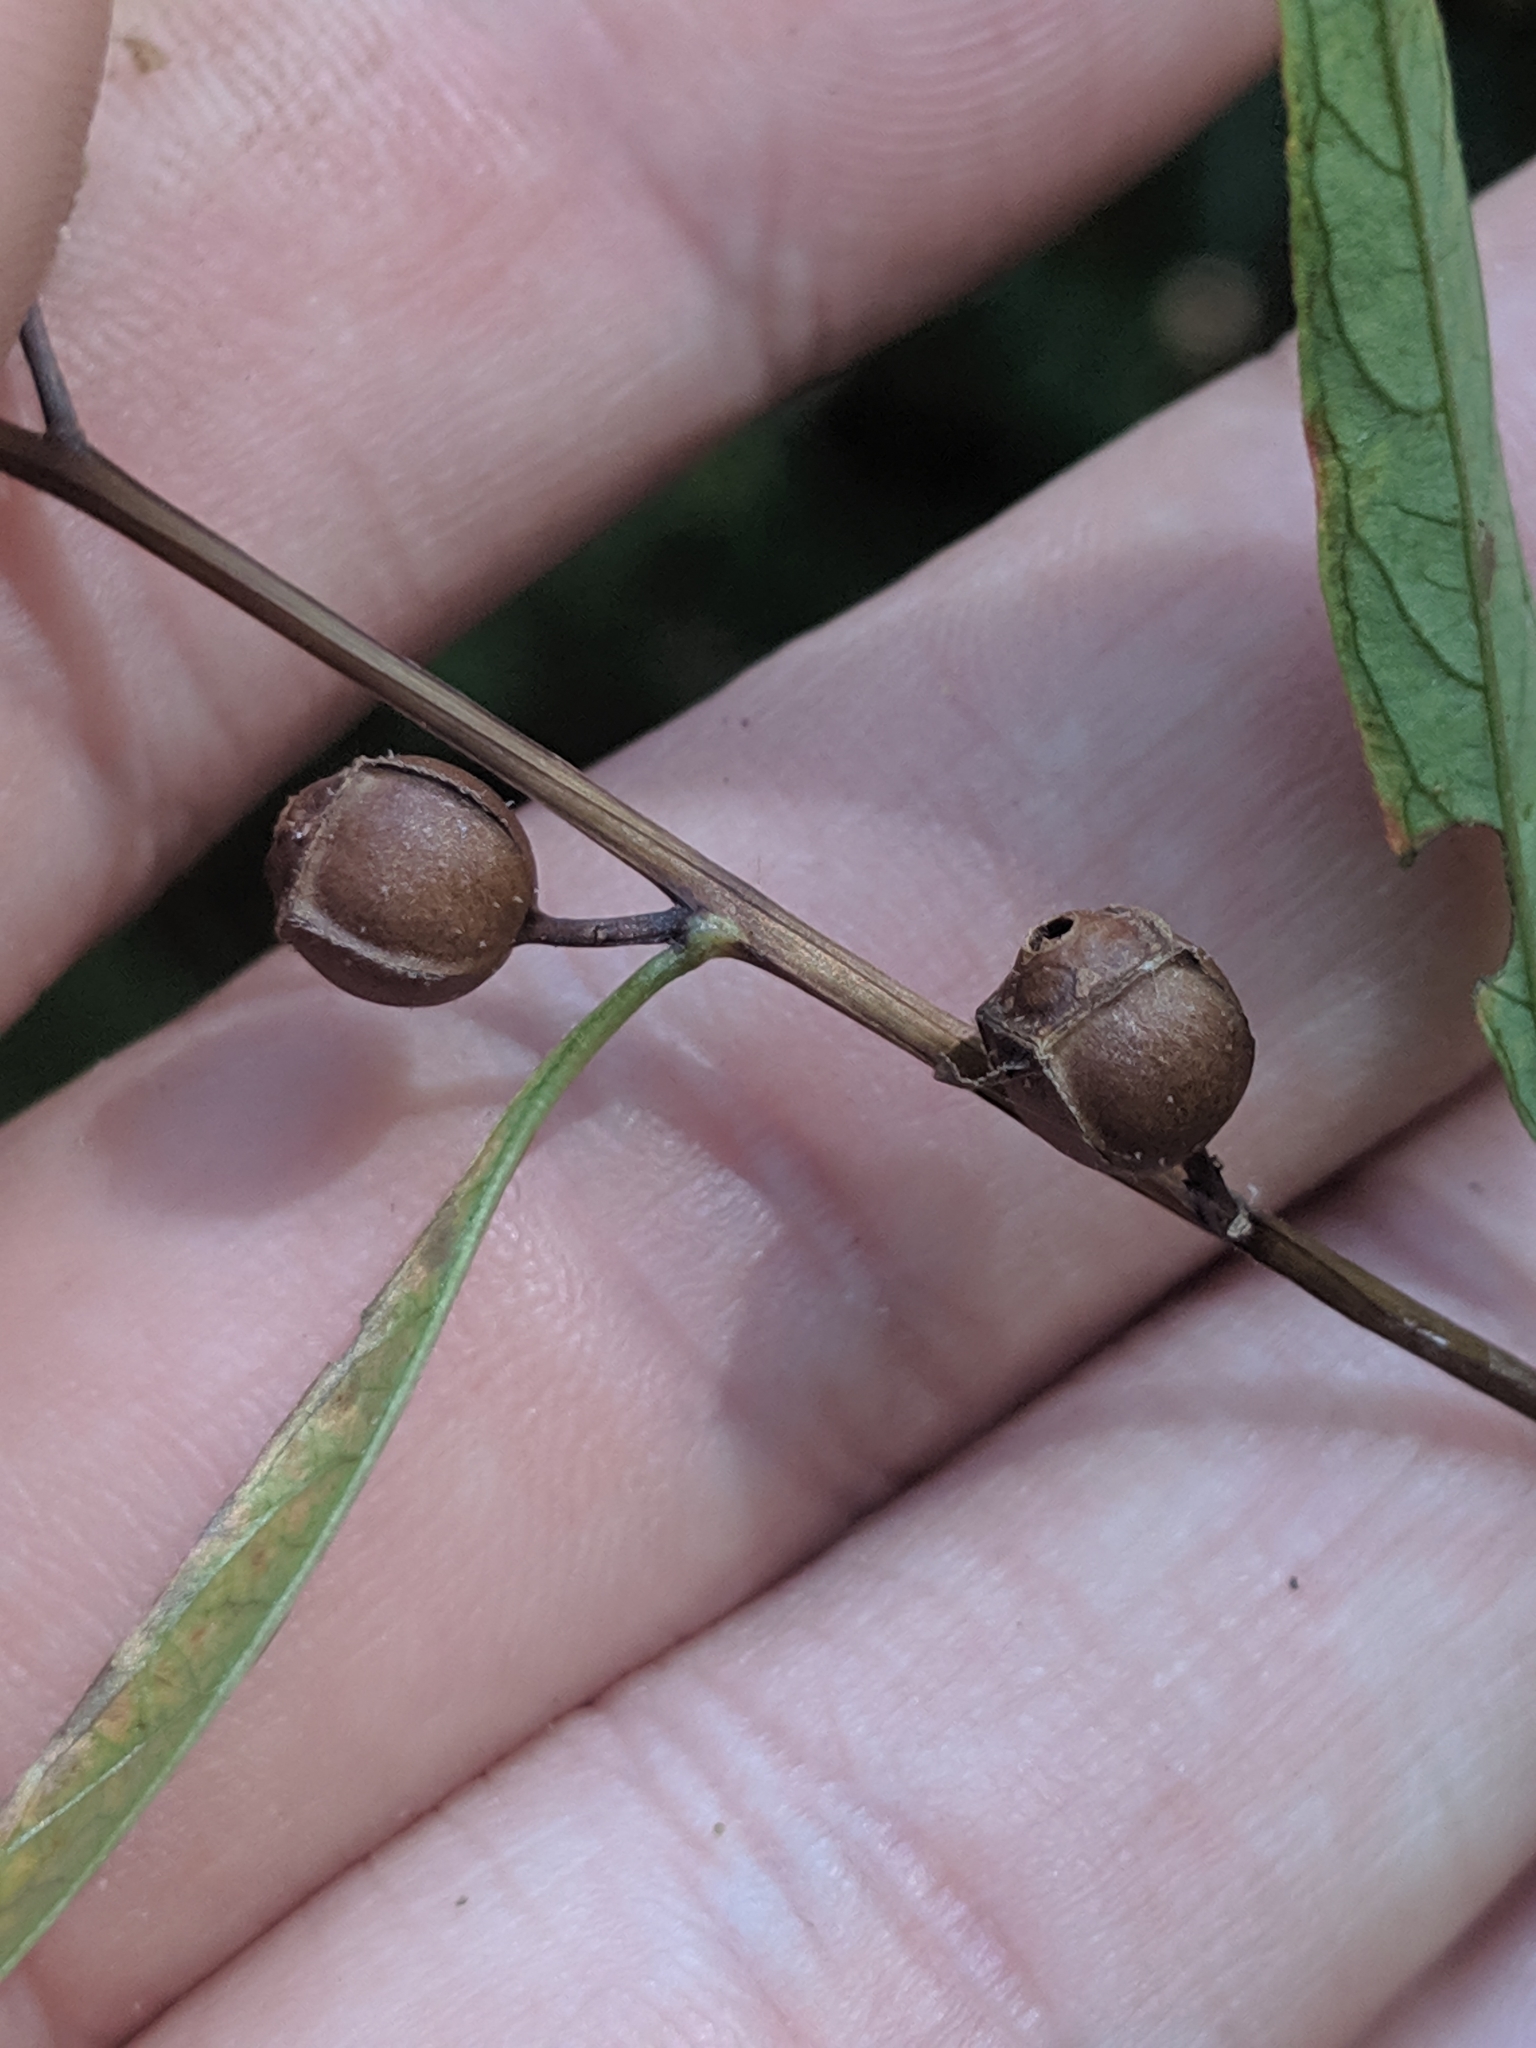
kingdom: Plantae
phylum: Tracheophyta
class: Magnoliopsida
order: Myrtales
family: Onagraceae
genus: Ludwigia
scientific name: Ludwigia alternifolia
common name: Rattlebox
